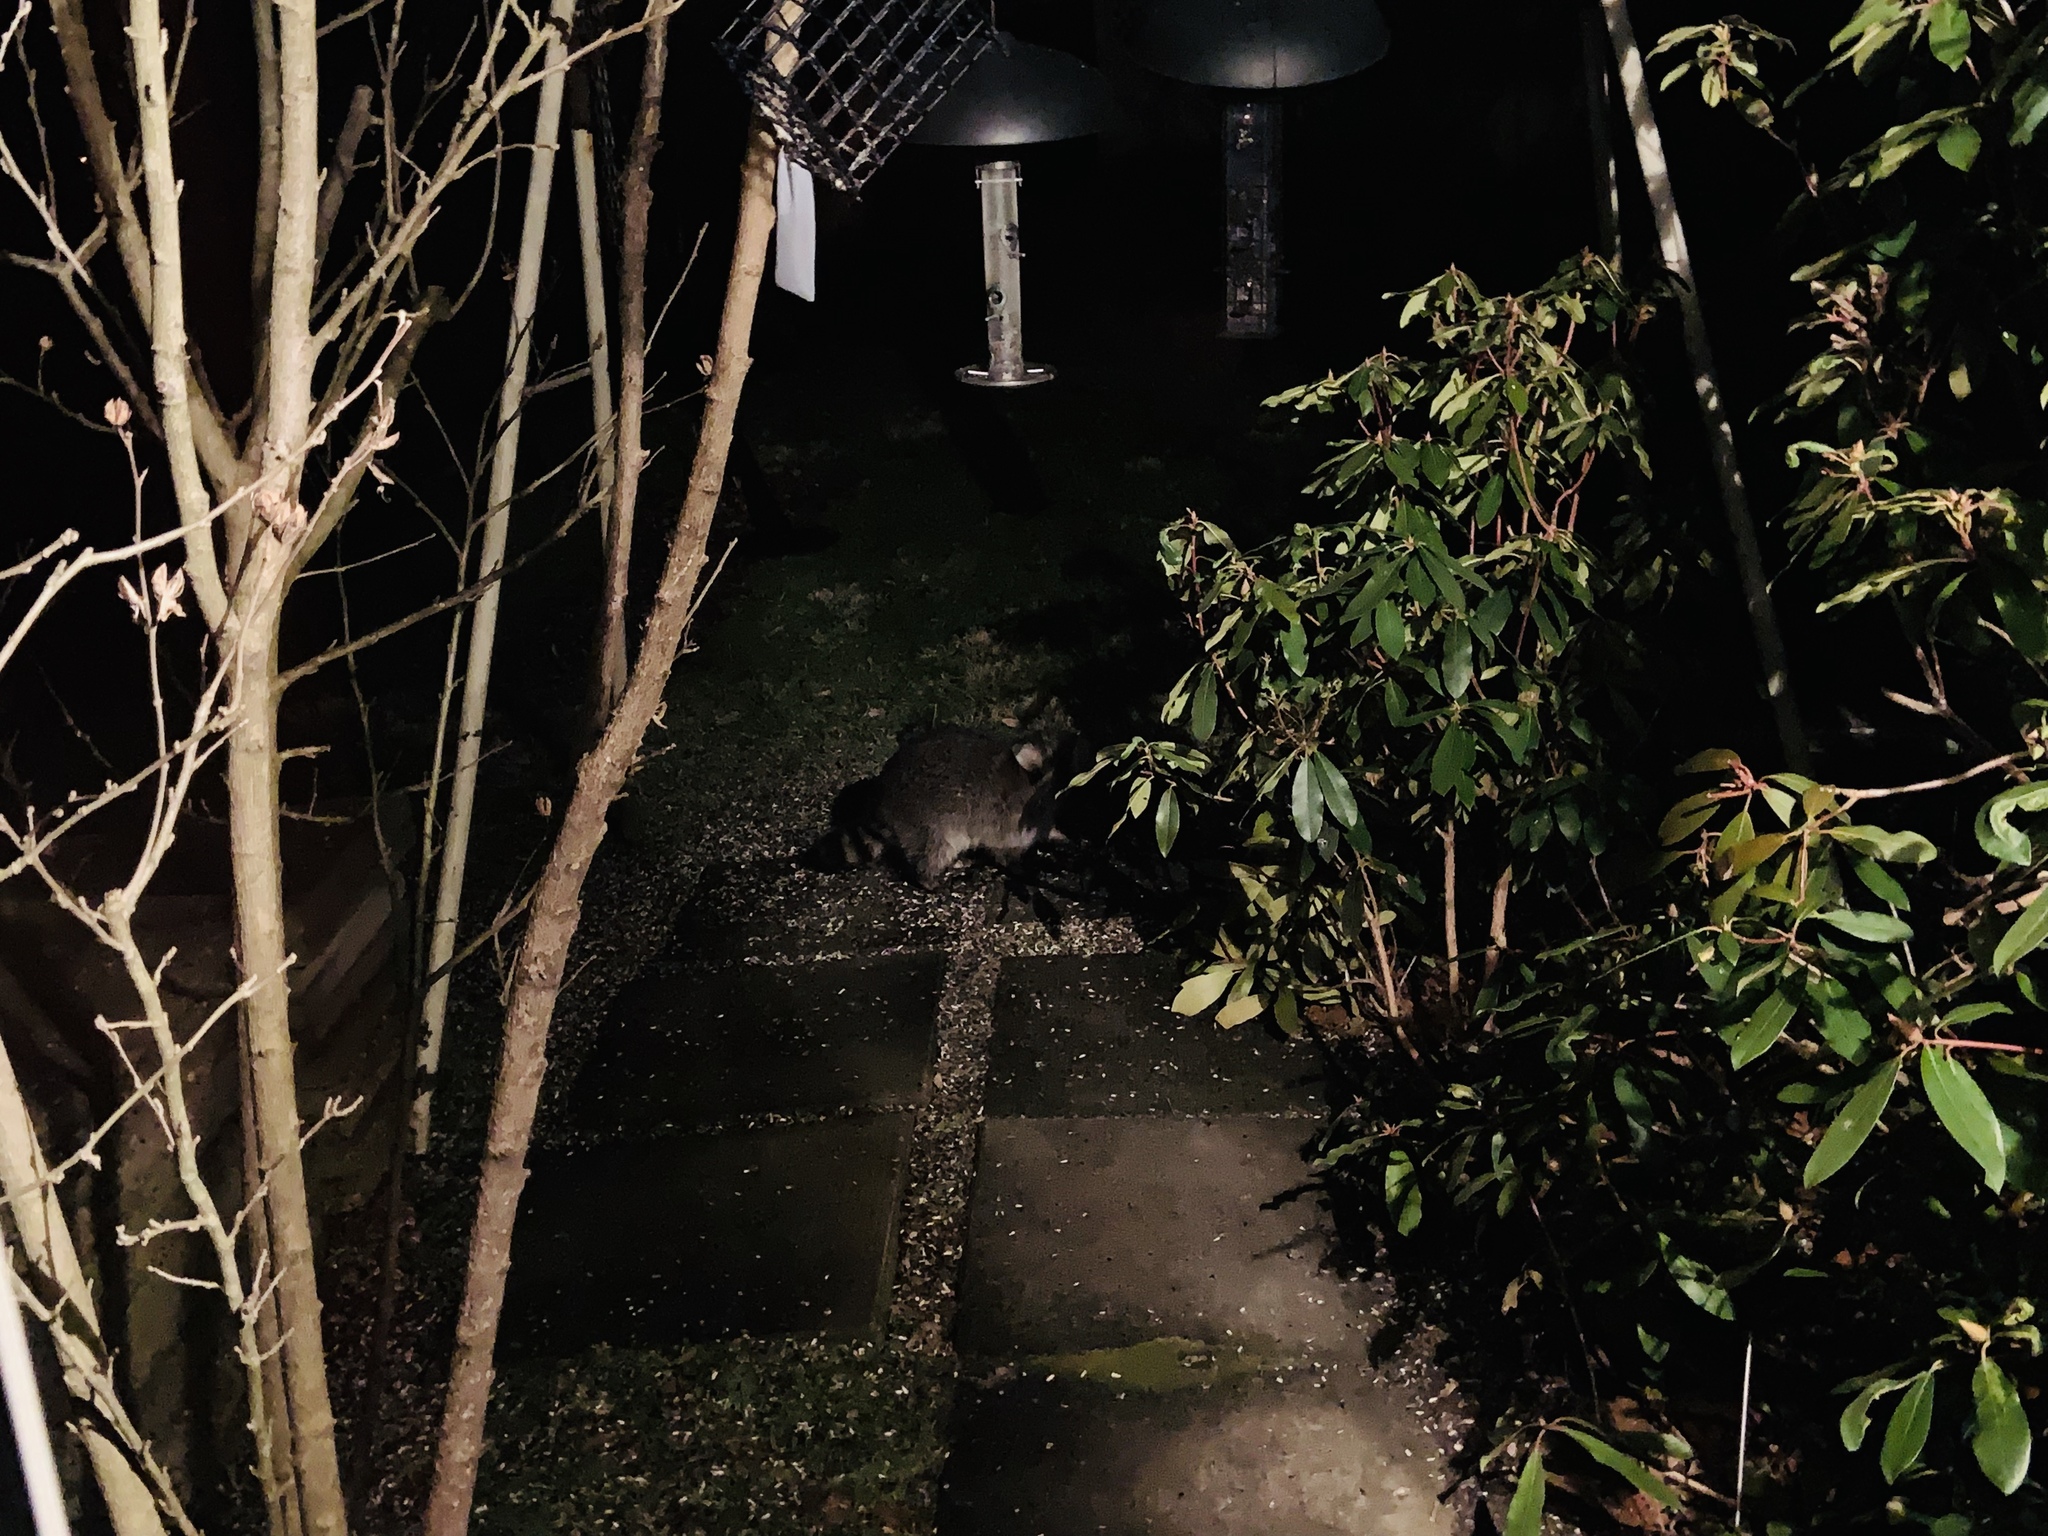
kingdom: Animalia
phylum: Chordata
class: Mammalia
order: Carnivora
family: Procyonidae
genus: Procyon
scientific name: Procyon lotor
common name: Raccoon
